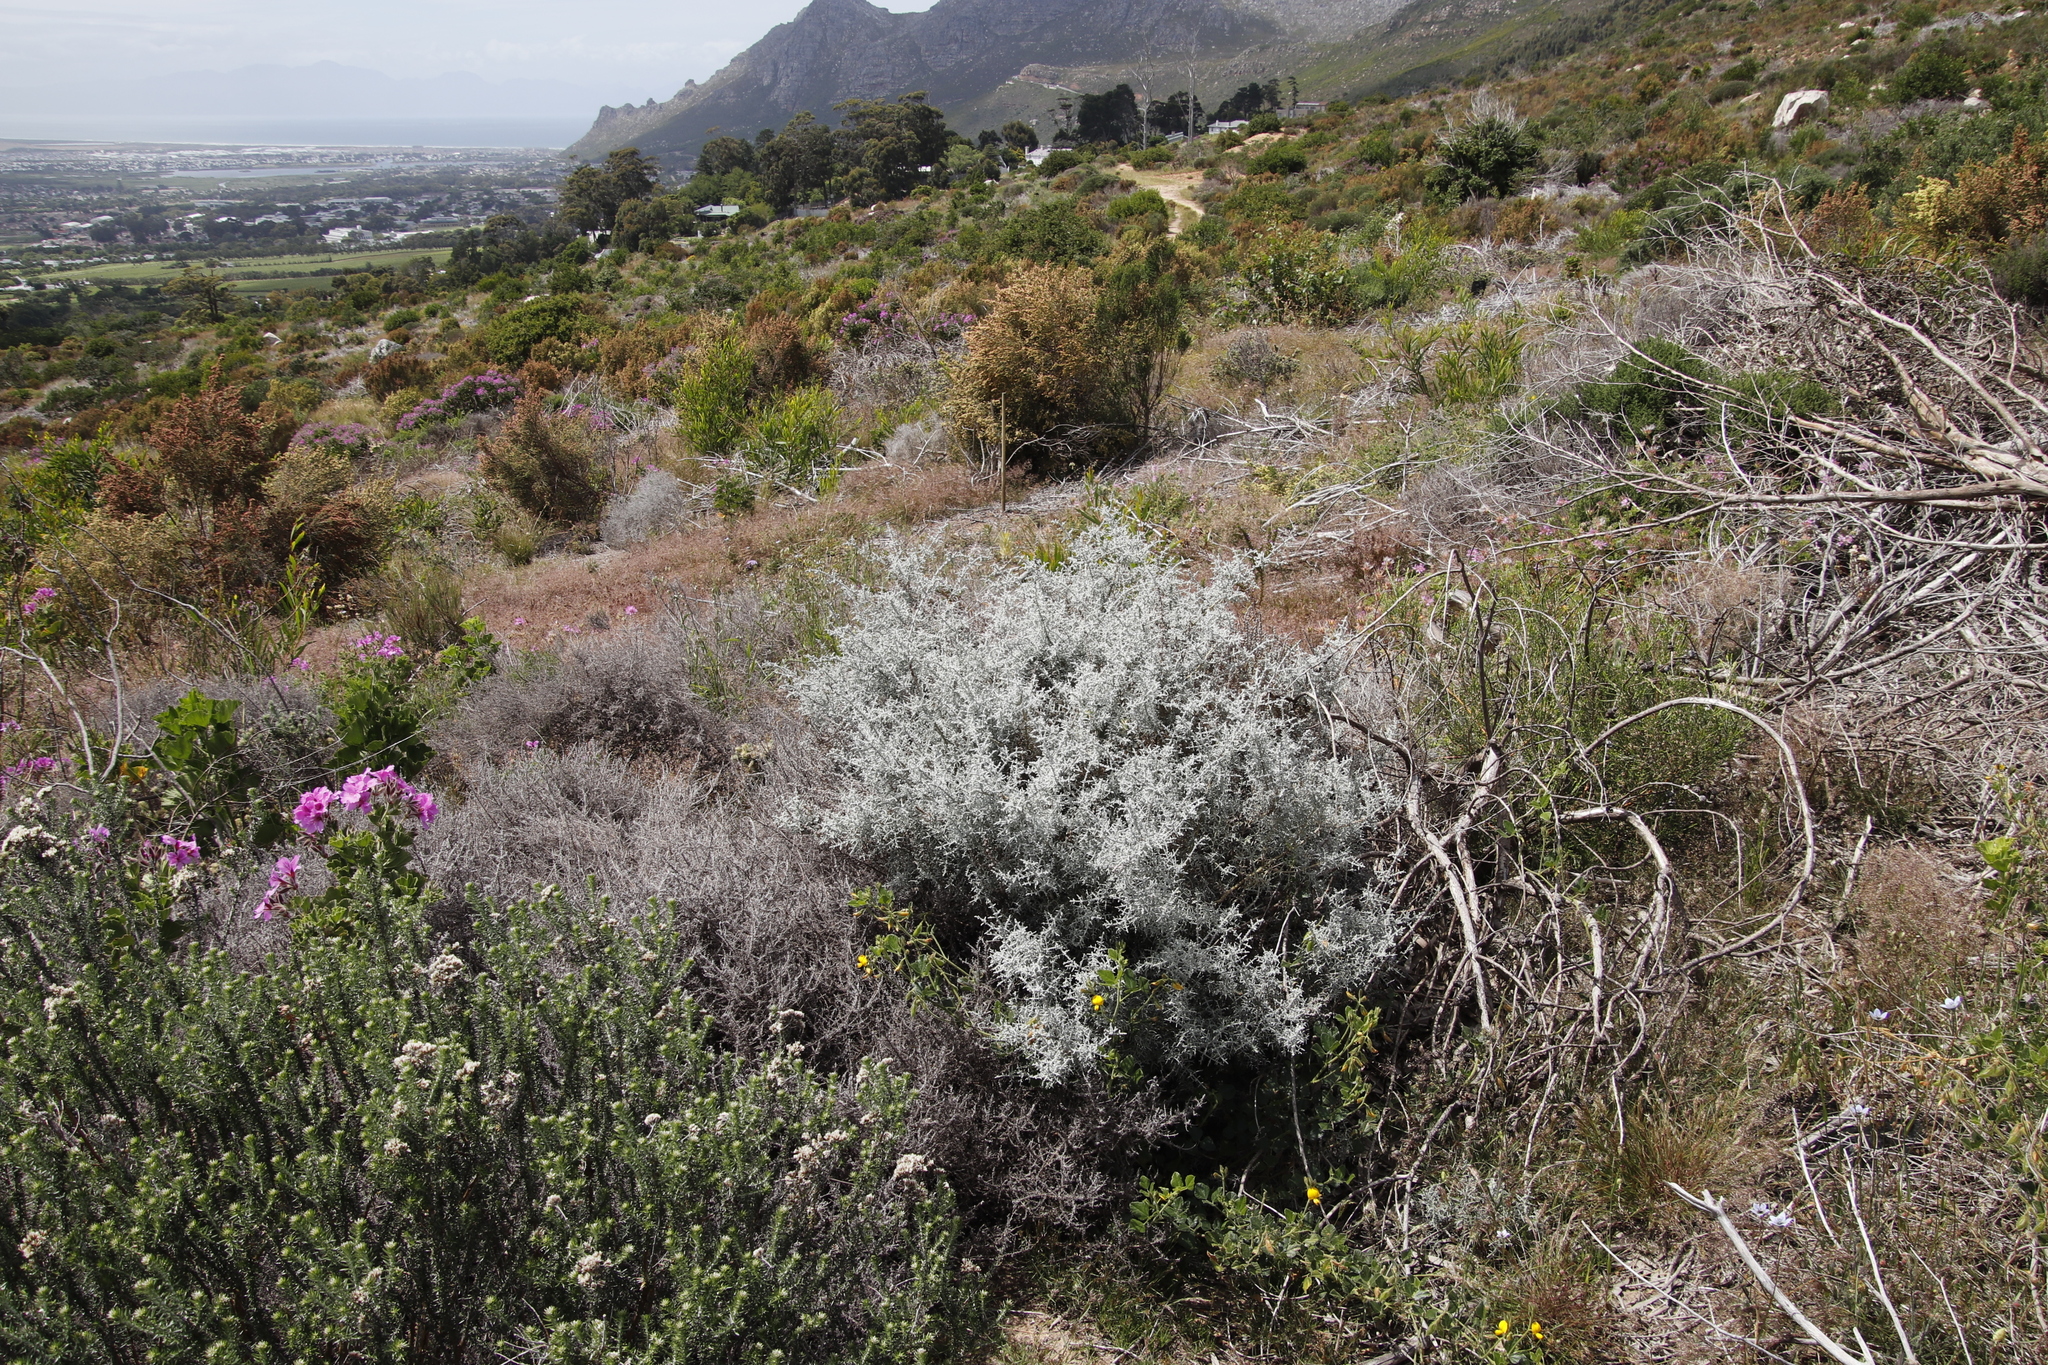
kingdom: Plantae
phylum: Tracheophyta
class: Magnoliopsida
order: Asterales
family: Asteraceae
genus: Seriphium
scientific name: Seriphium plumosum
